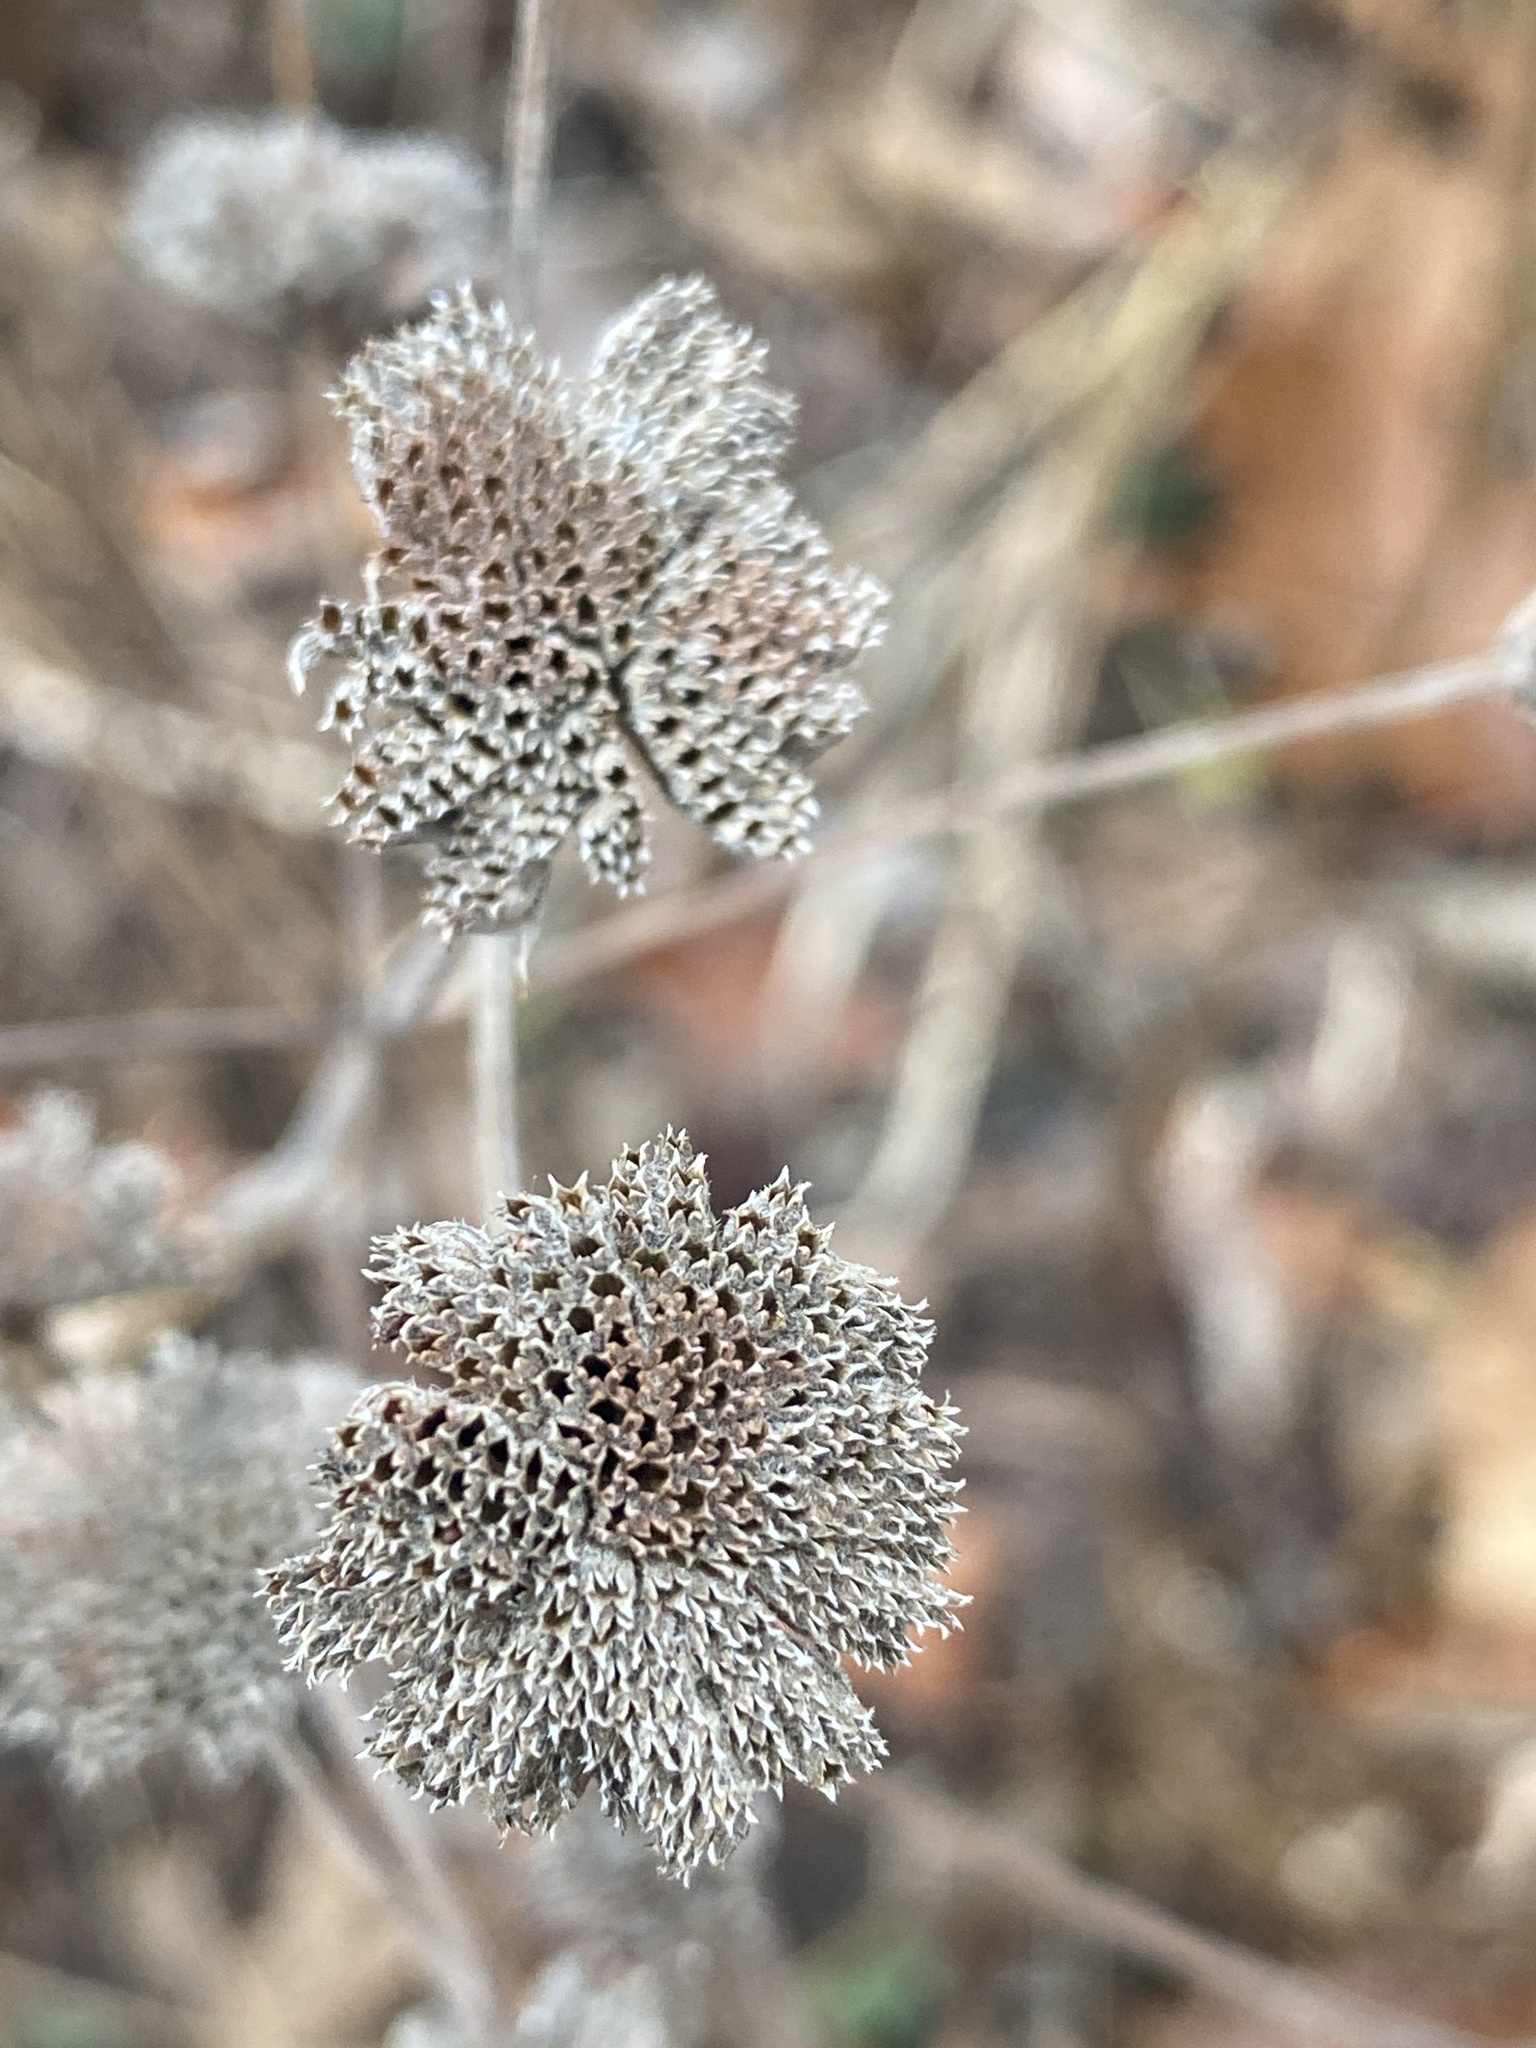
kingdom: Plantae
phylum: Tracheophyta
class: Magnoliopsida
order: Lamiales
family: Lamiaceae
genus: Pycnanthemum
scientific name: Pycnanthemum
